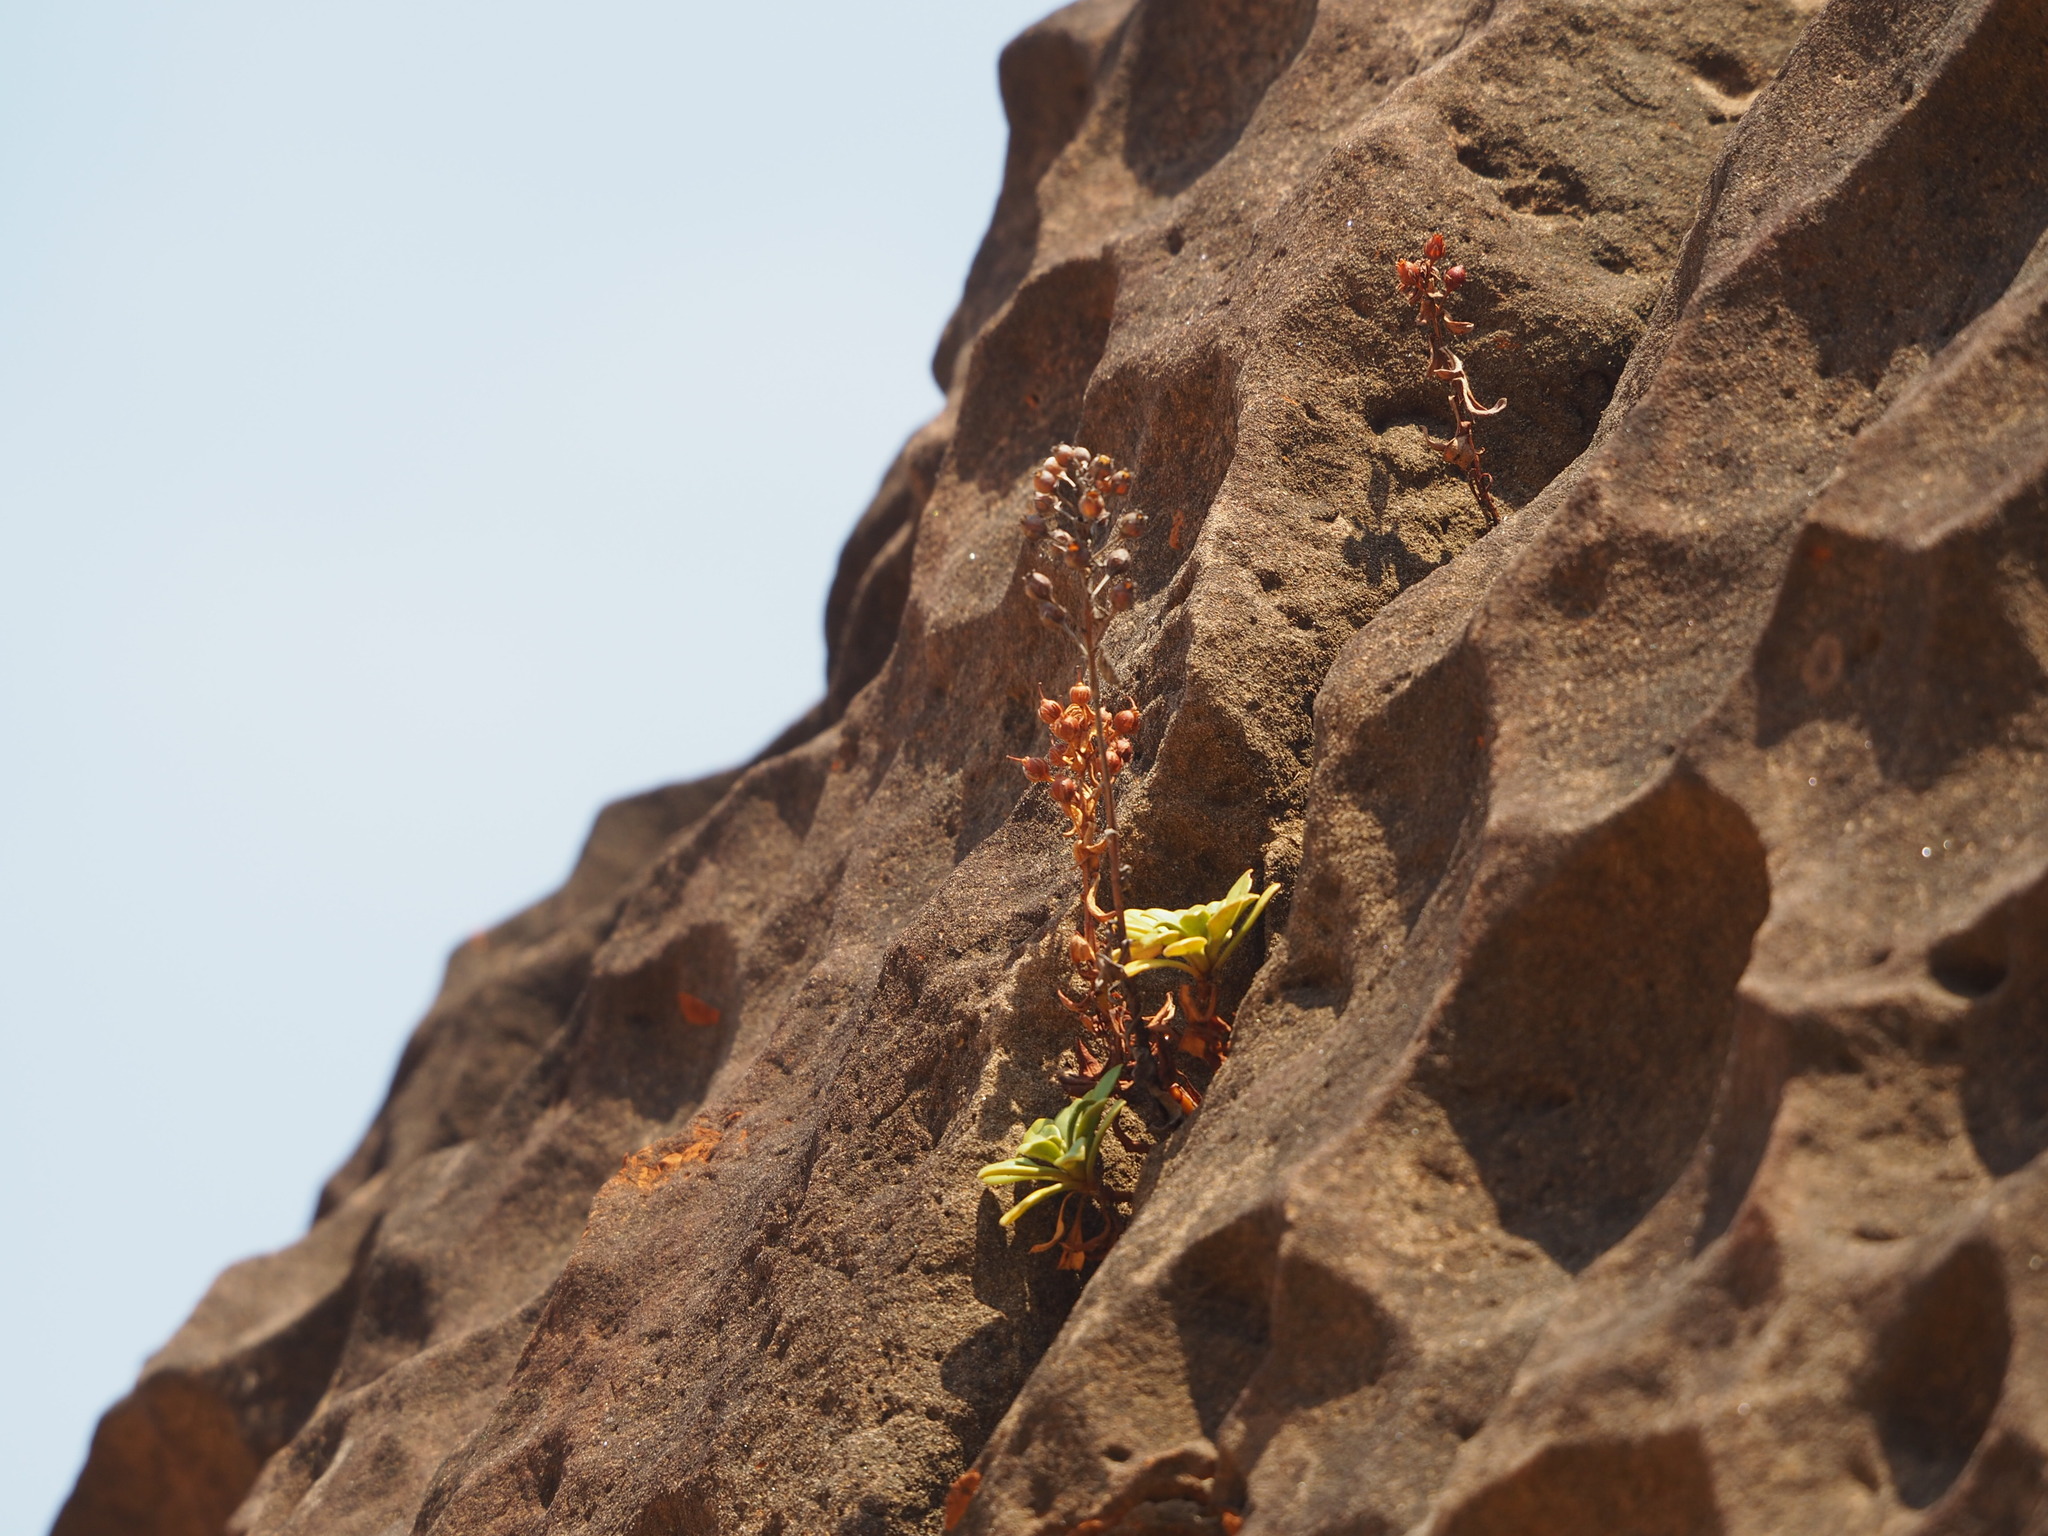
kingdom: Plantae
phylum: Tracheophyta
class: Magnoliopsida
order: Ericales
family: Primulaceae
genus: Lysimachia
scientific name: Lysimachia mauritiana
